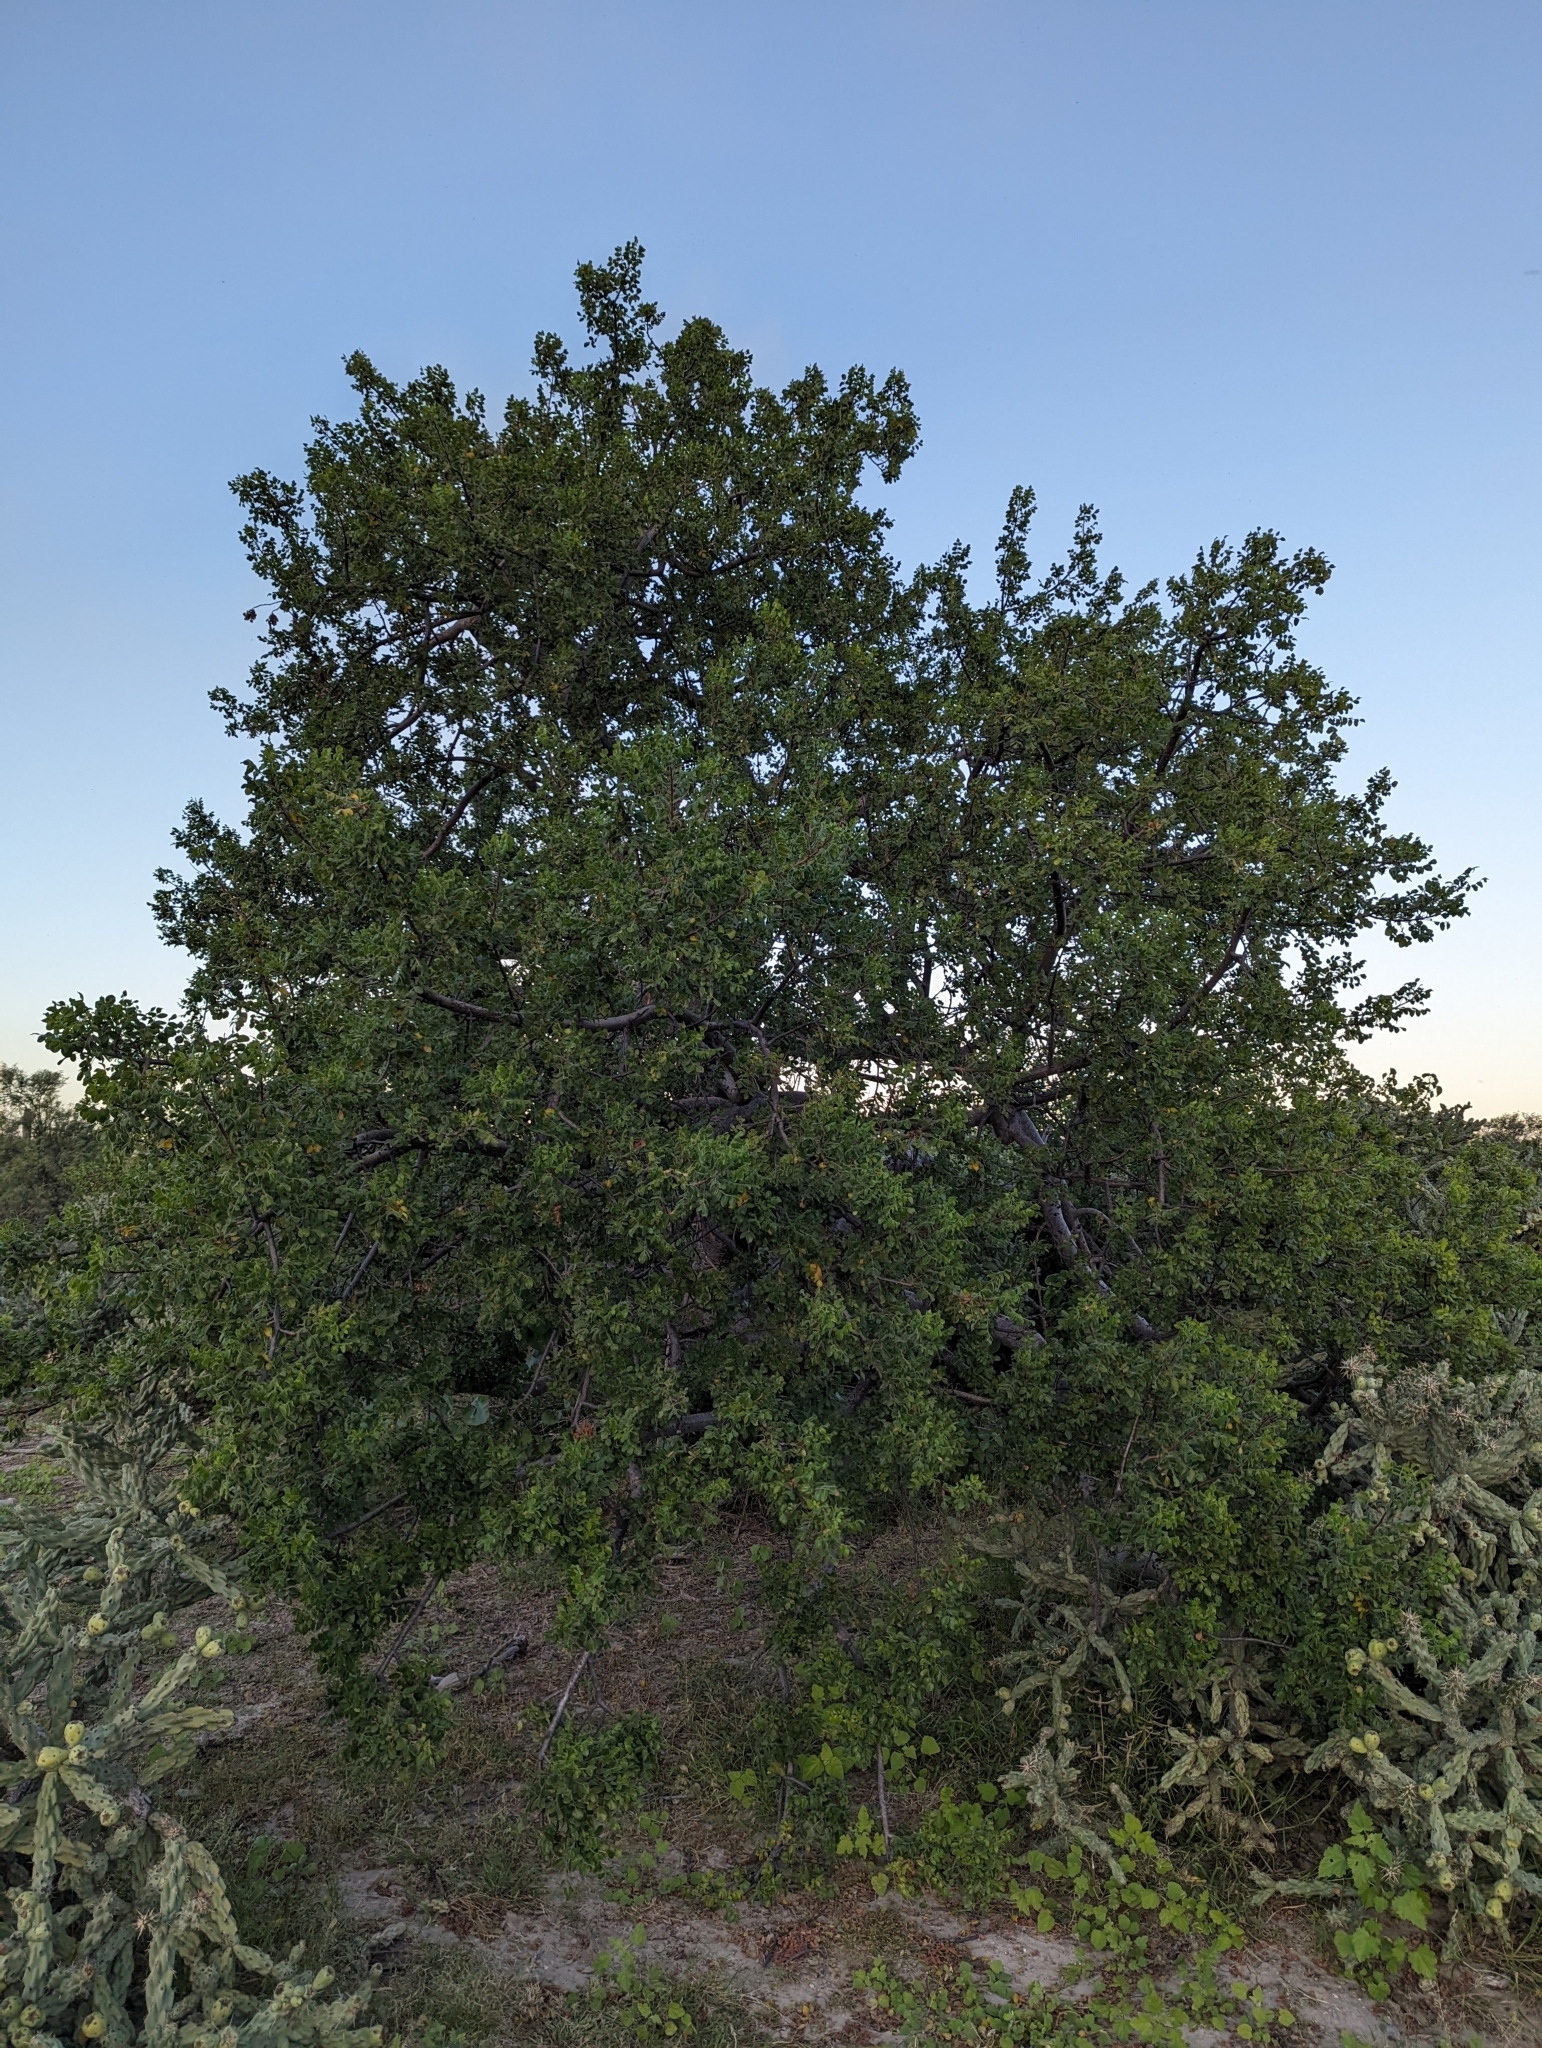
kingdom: Plantae
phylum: Tracheophyta
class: Magnoliopsida
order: Sapindales
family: Anacardiaceae
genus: Cyrtocarpa
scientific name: Cyrtocarpa edulis
